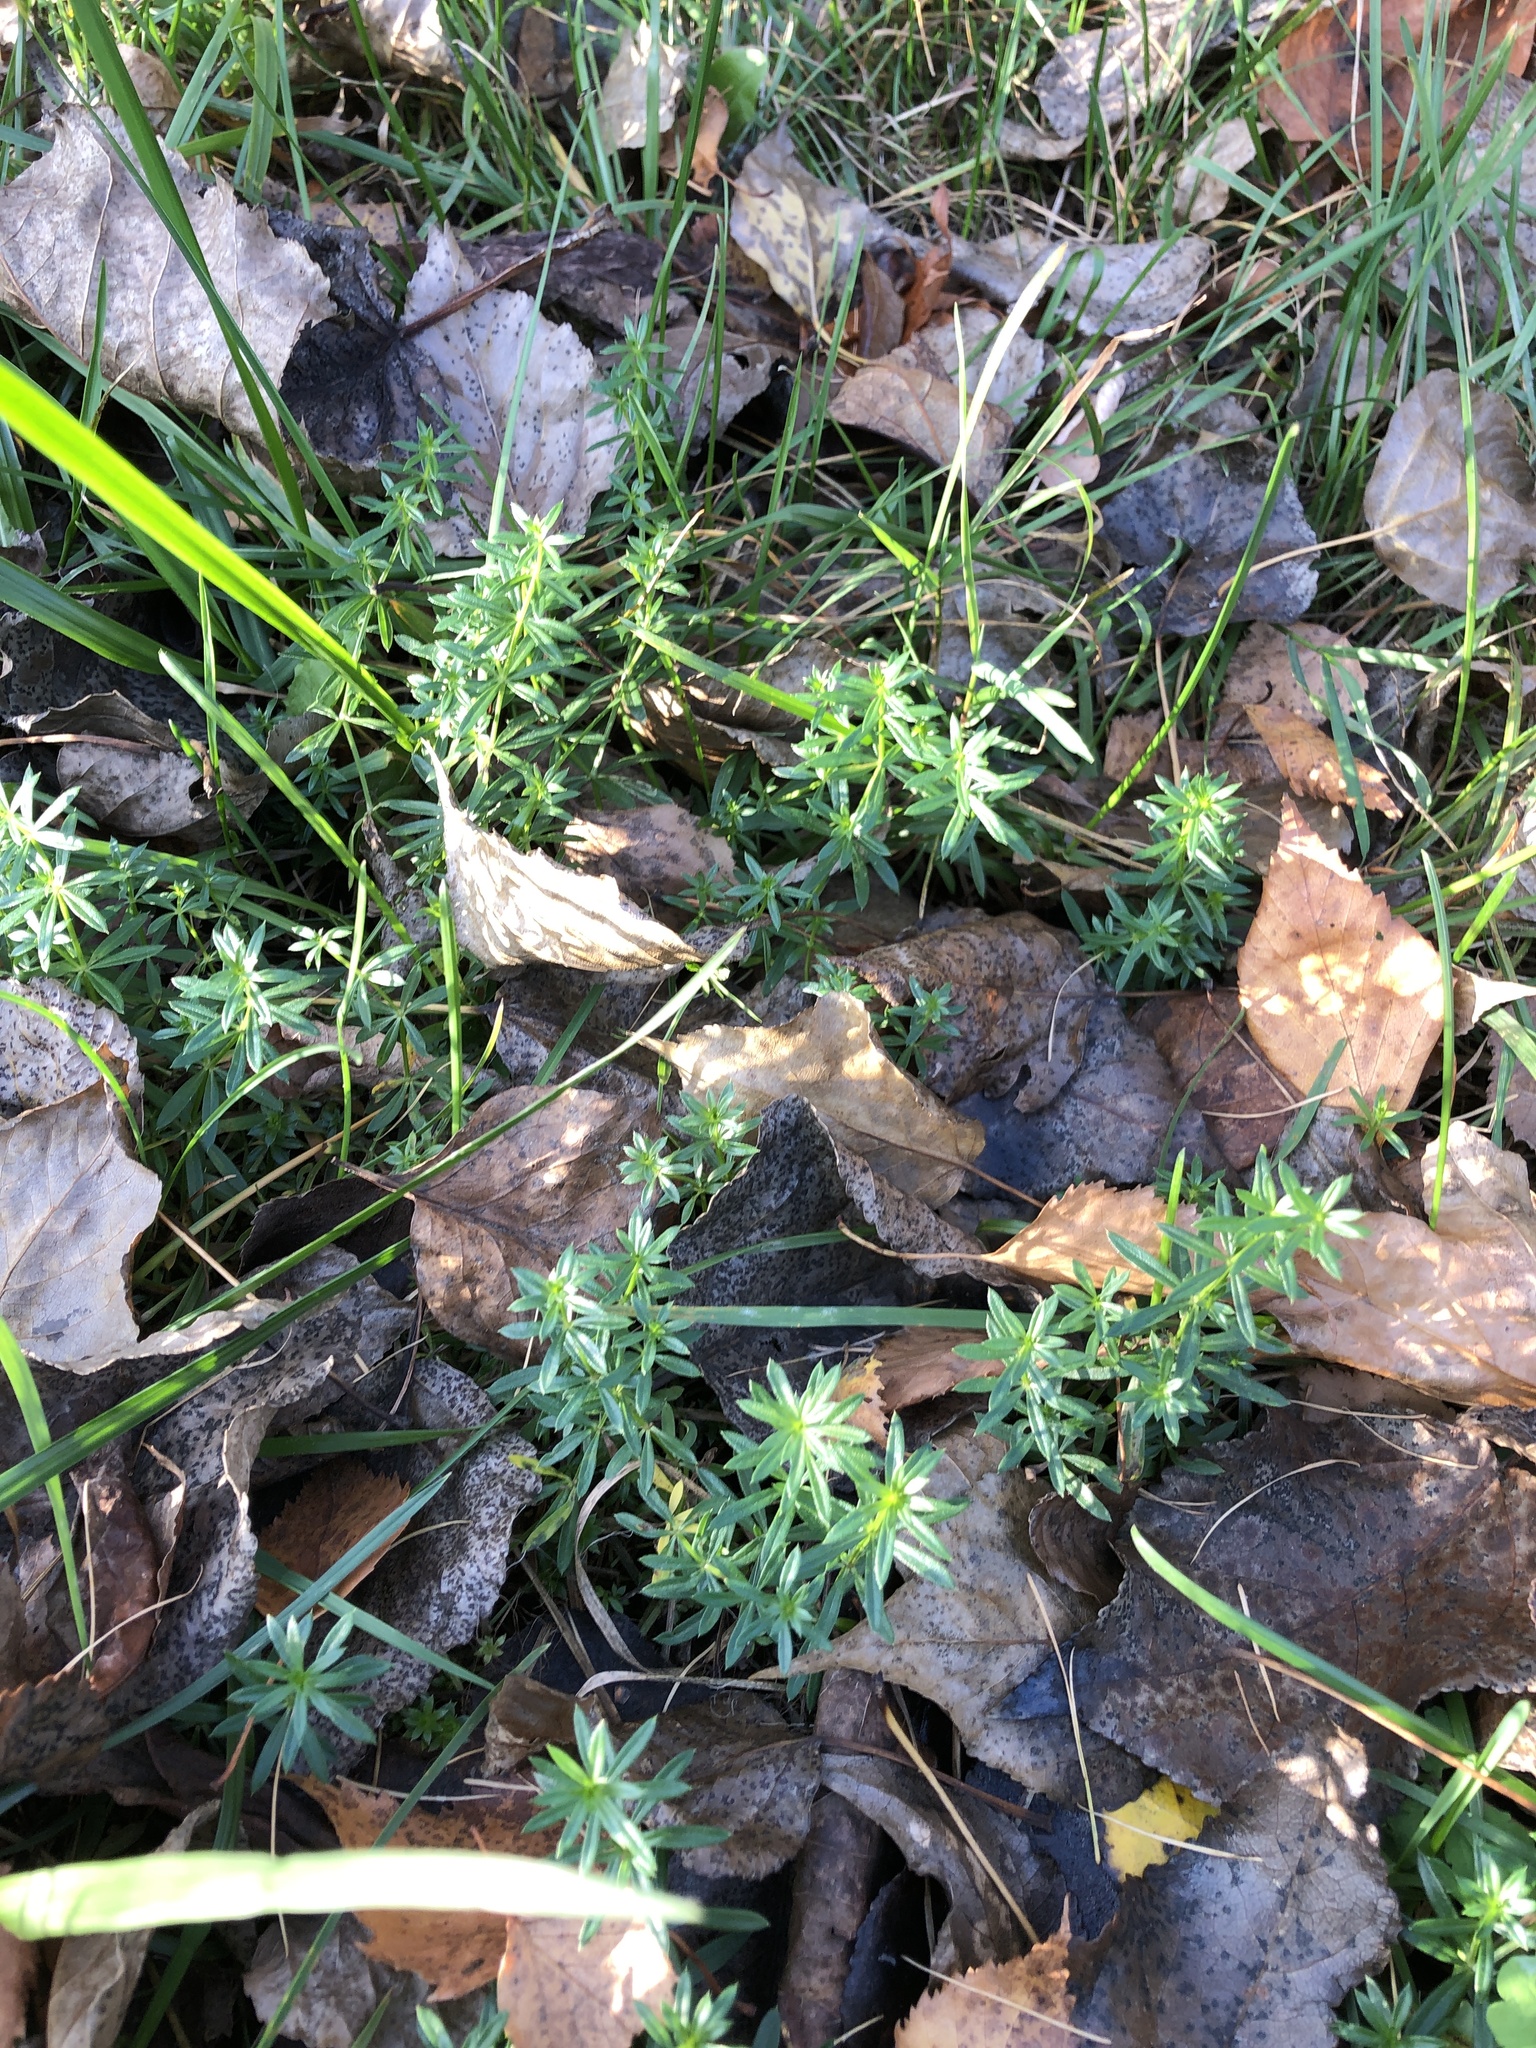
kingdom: Plantae
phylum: Tracheophyta
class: Magnoliopsida
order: Gentianales
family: Rubiaceae
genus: Galium
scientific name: Galium mollugo
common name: Hedge bedstraw
